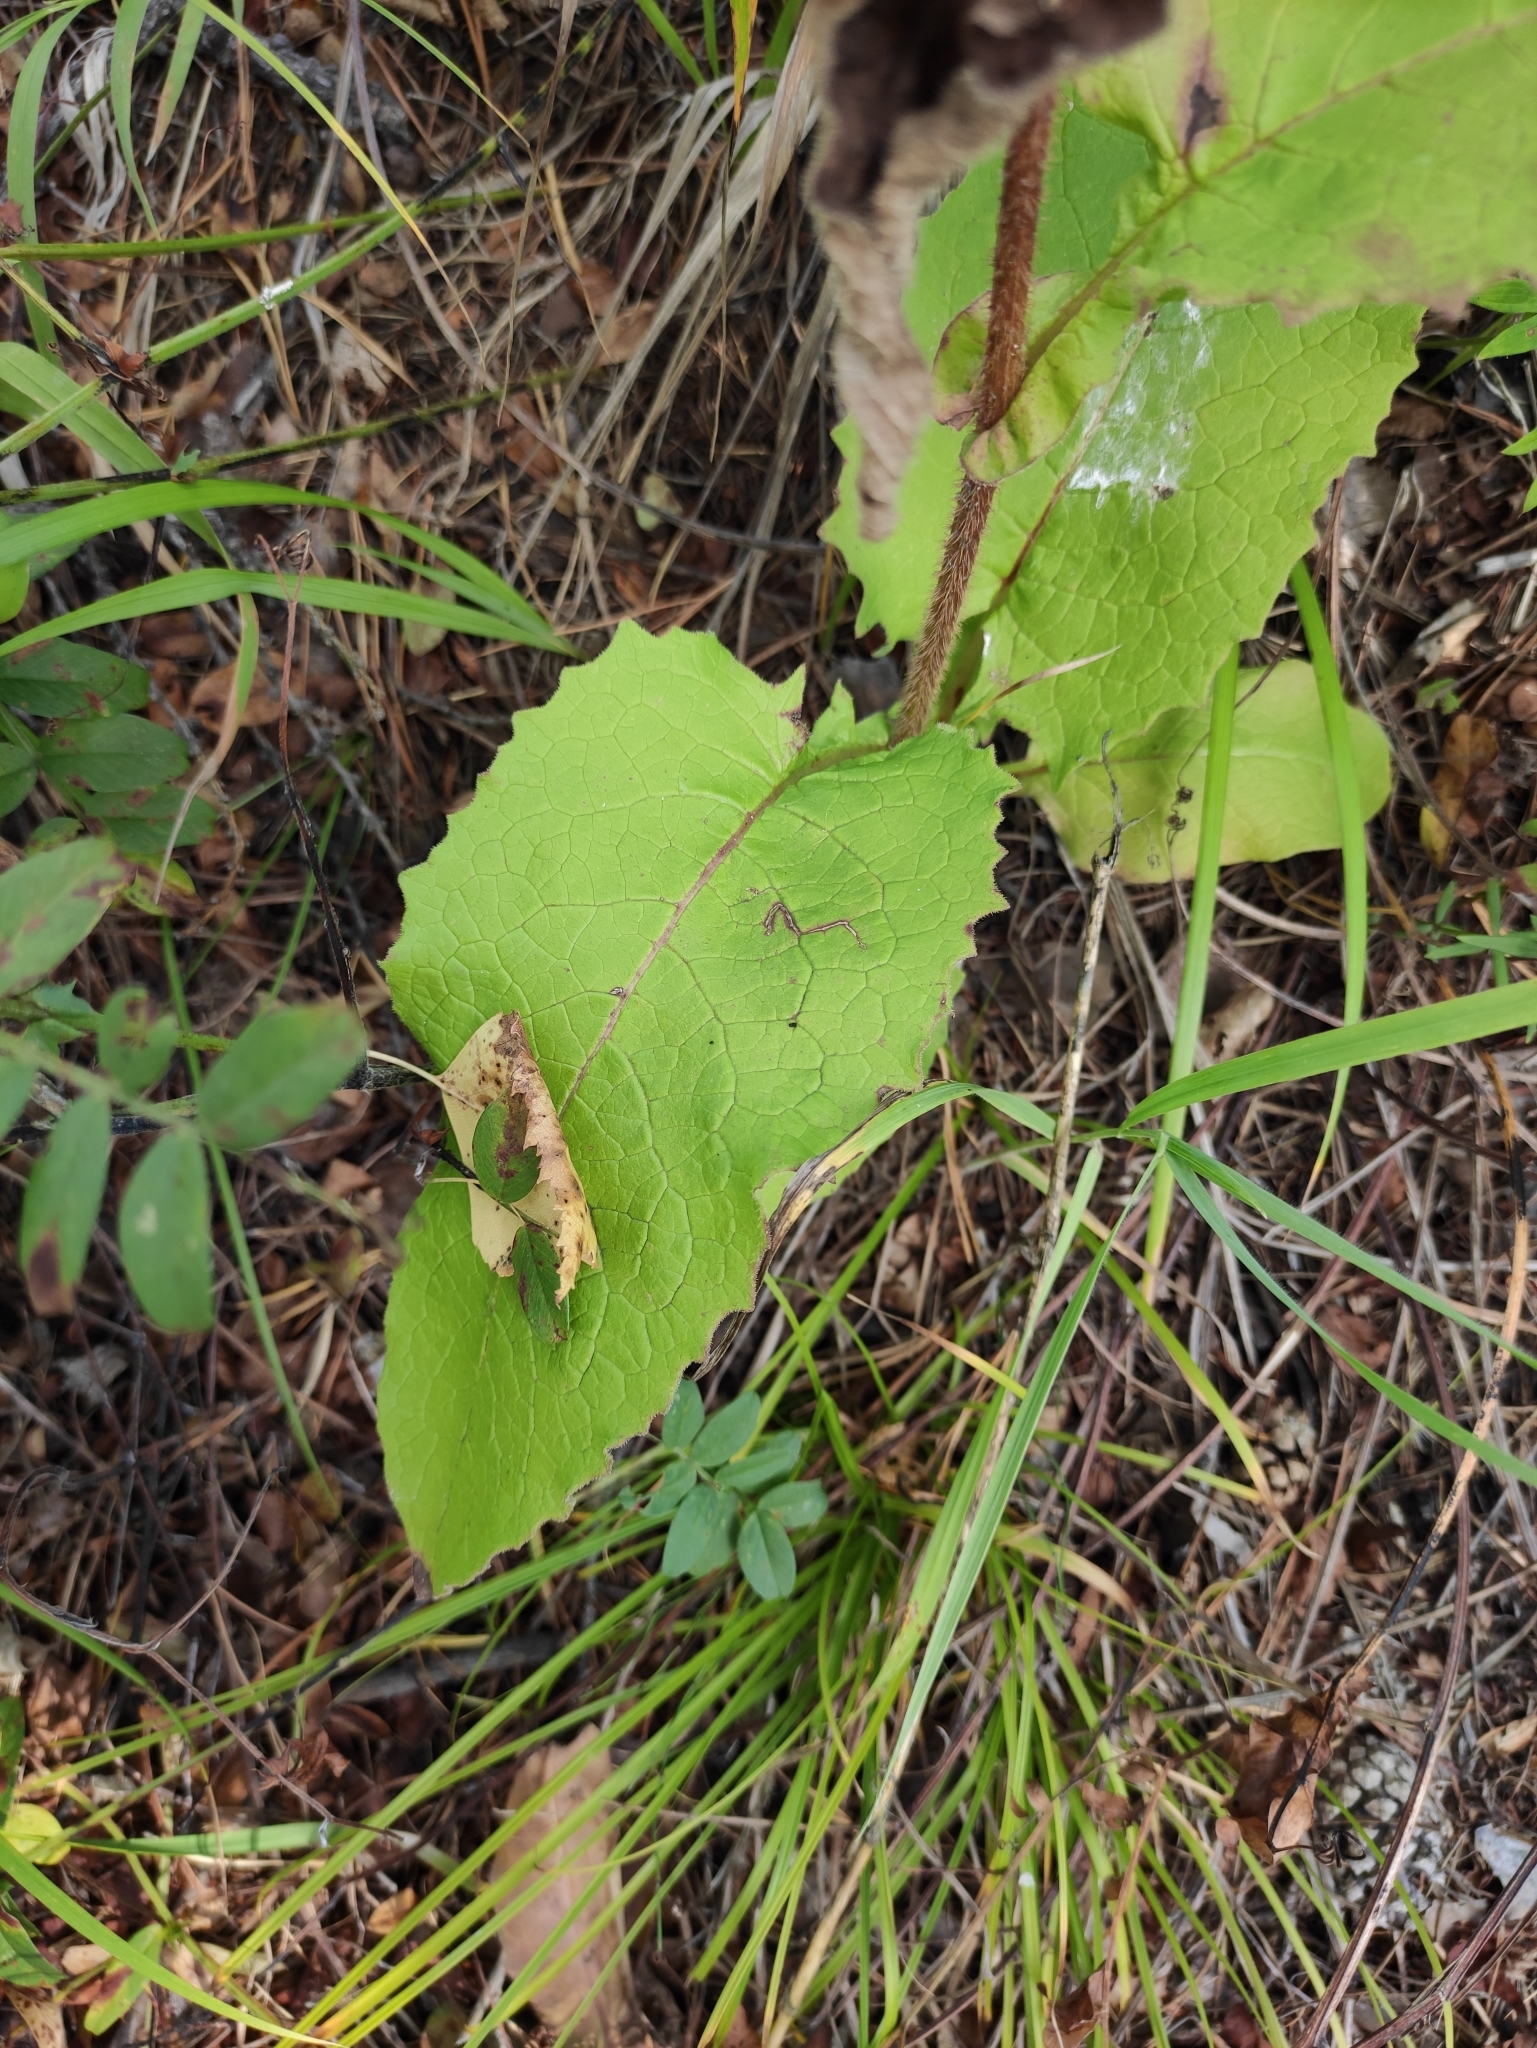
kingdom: Plantae
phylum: Tracheophyta
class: Magnoliopsida
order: Asterales
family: Asteraceae
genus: Crepis
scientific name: Crepis sibirica
